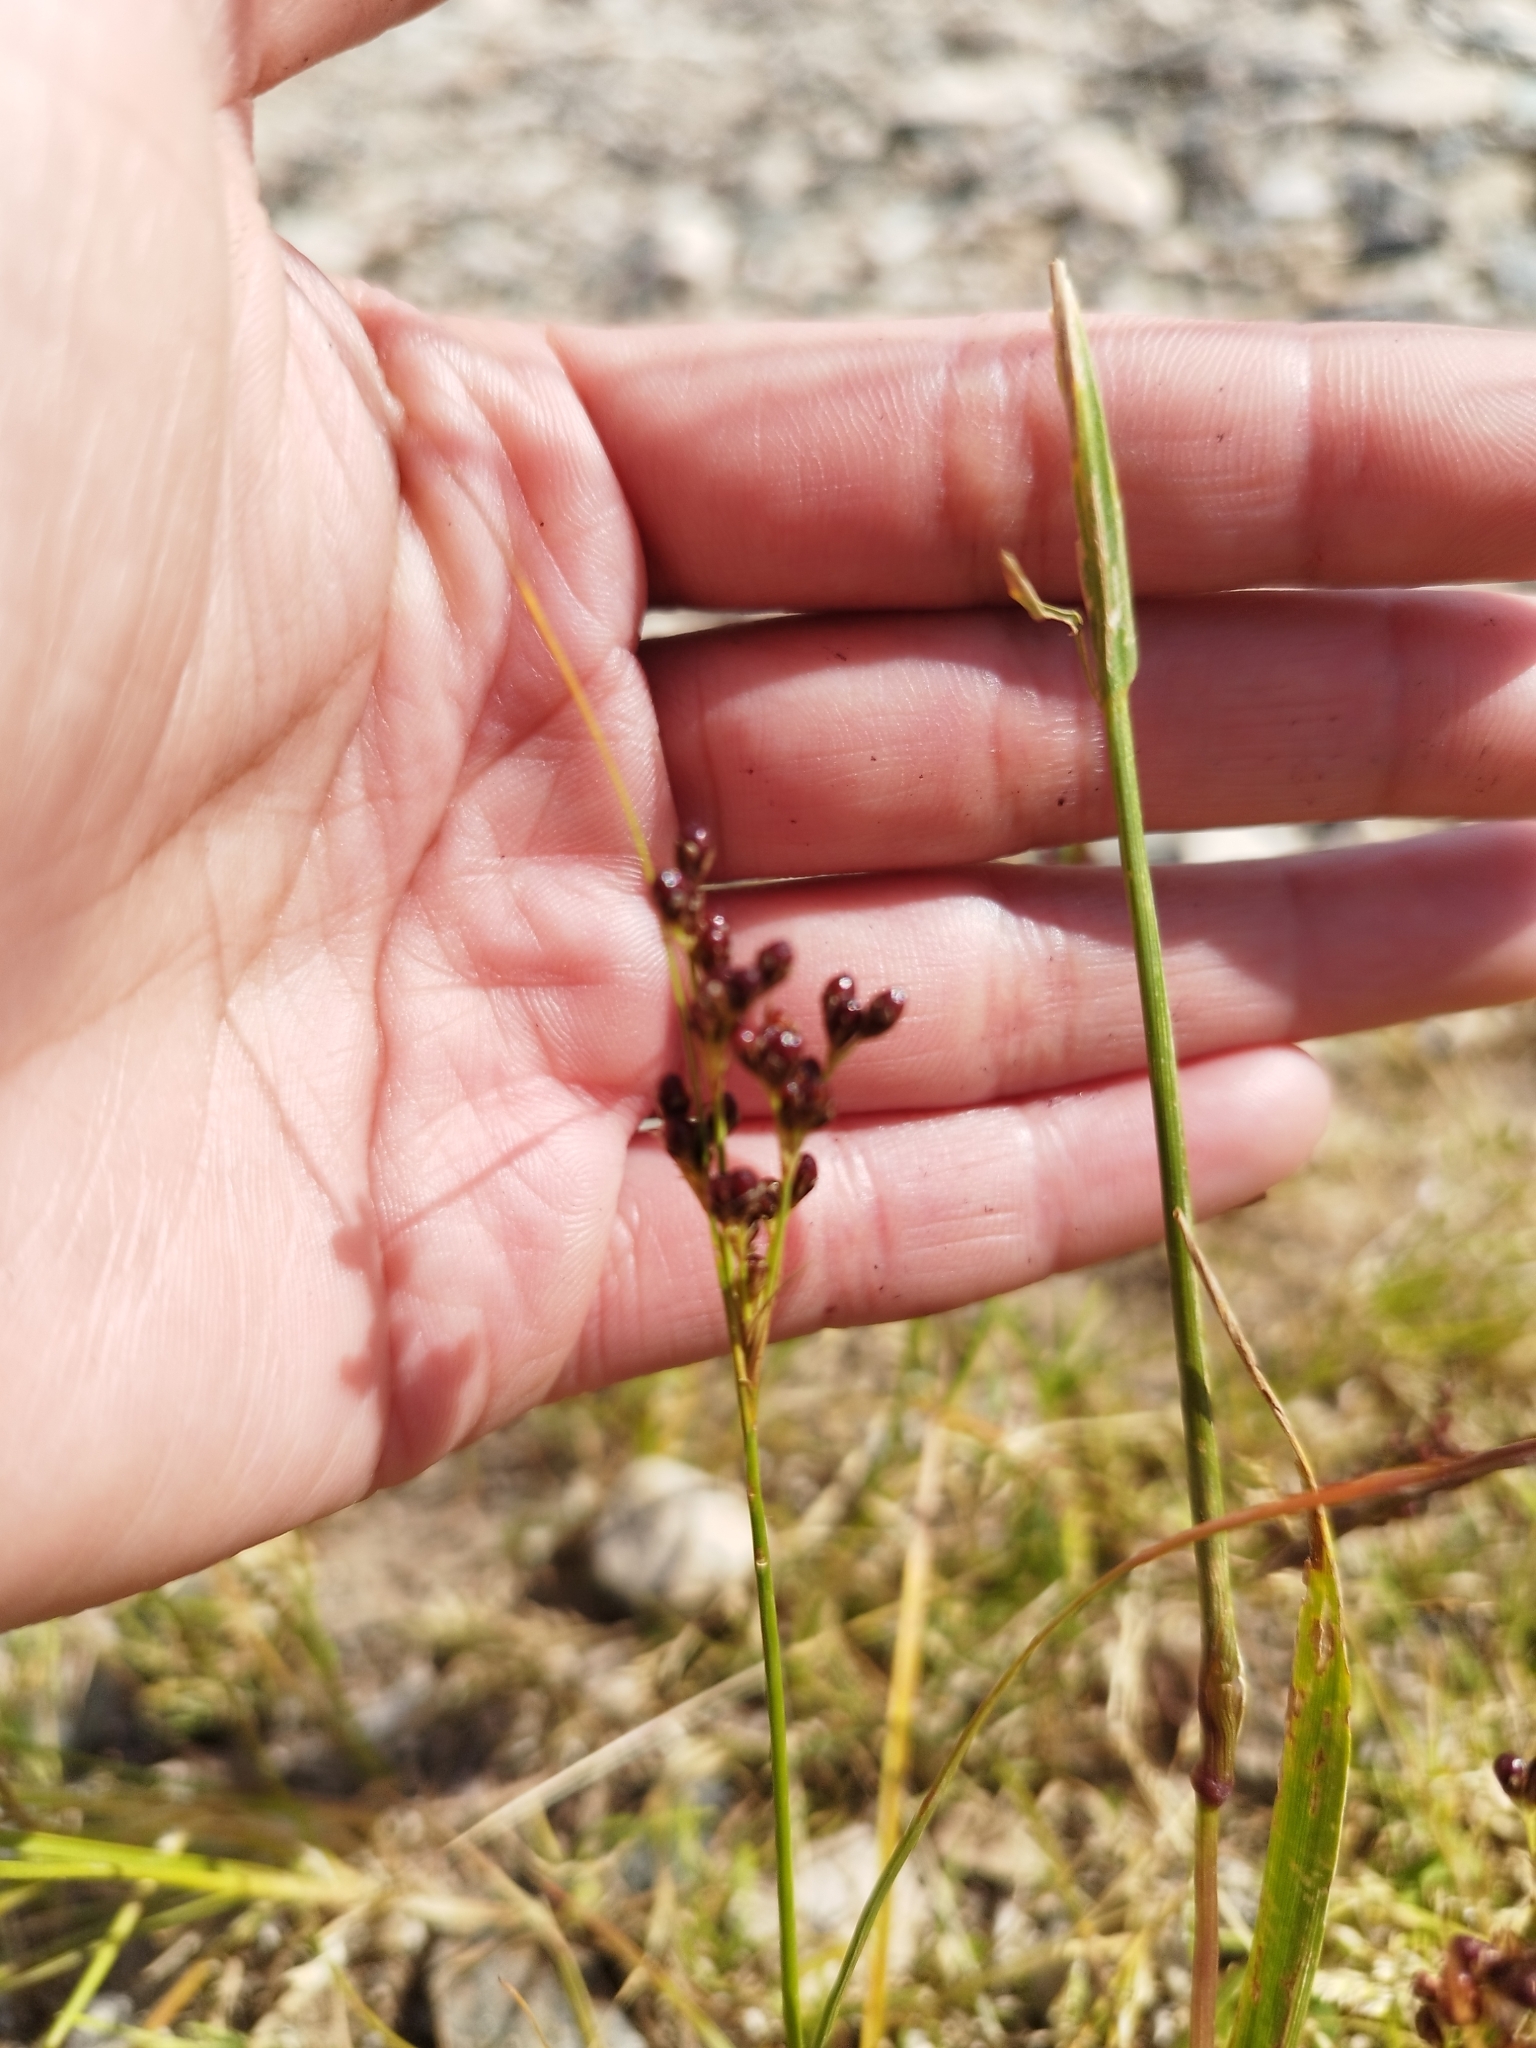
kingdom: Plantae
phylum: Tracheophyta
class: Liliopsida
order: Poales
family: Juncaceae
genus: Juncus
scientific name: Juncus compressus
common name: Round-fruited rush
